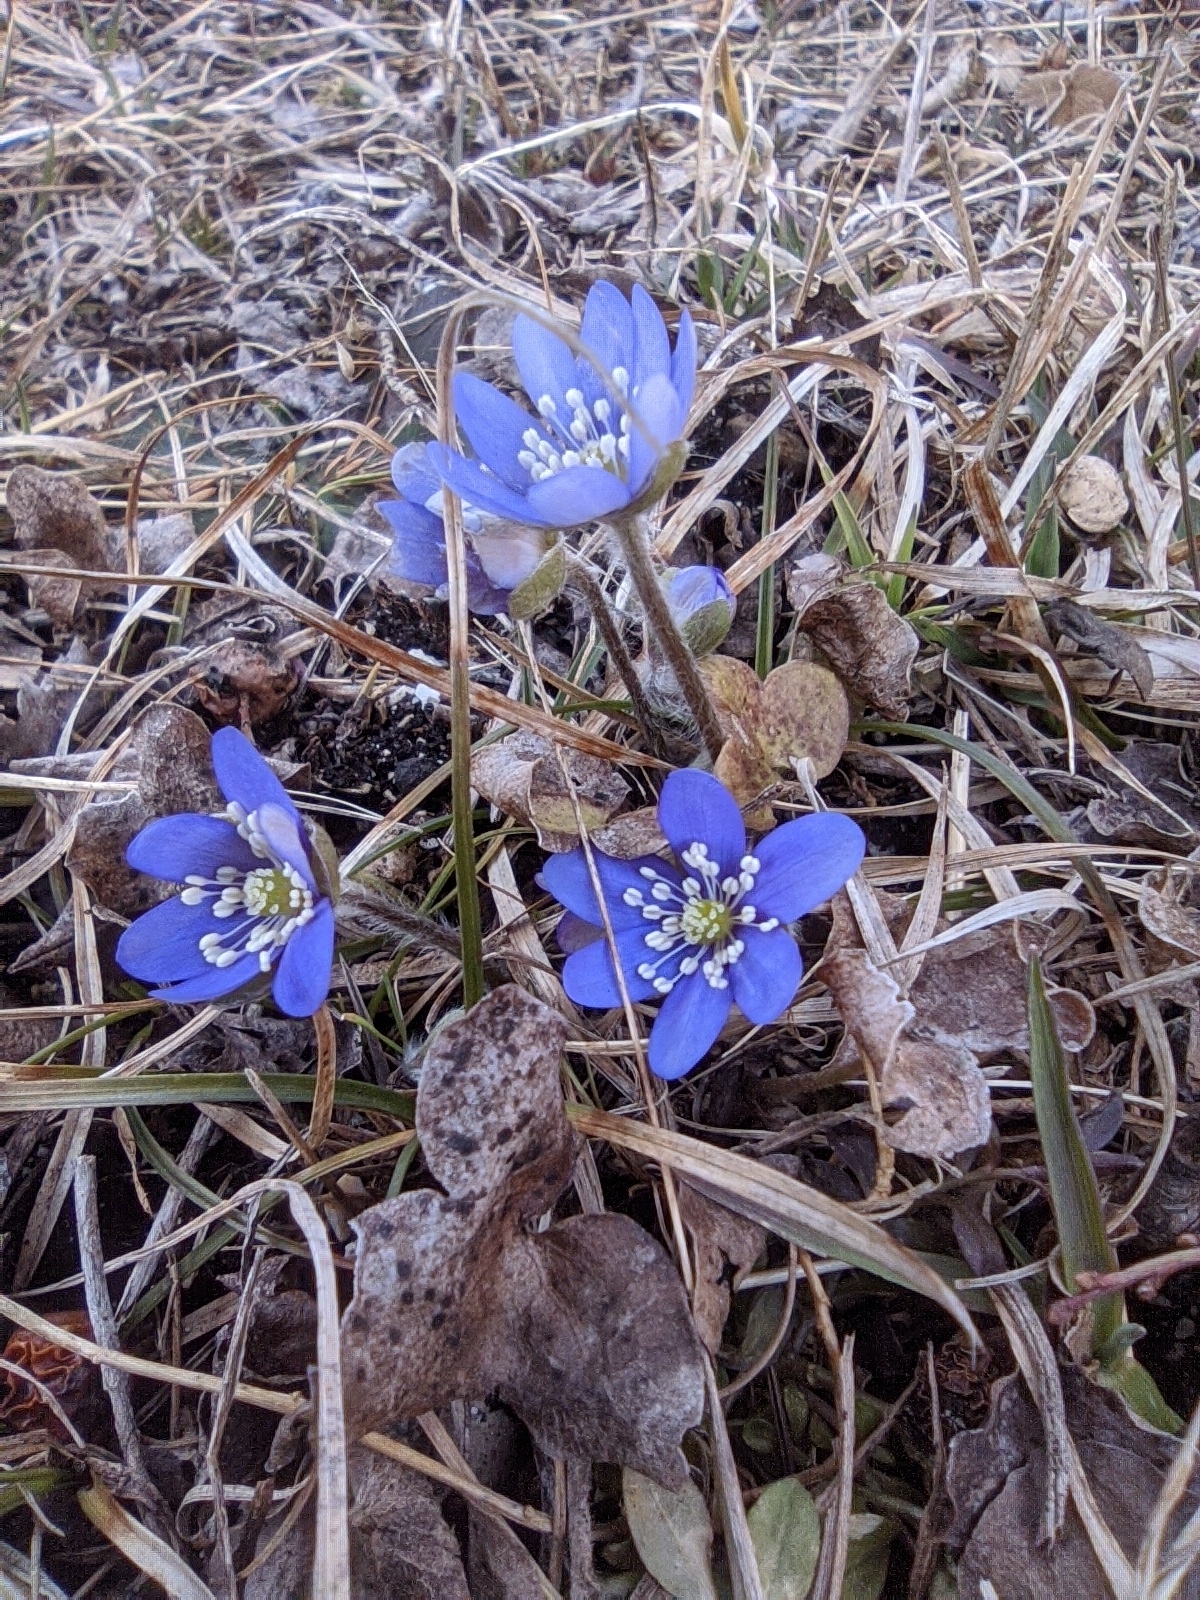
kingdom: Plantae
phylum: Tracheophyta
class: Magnoliopsida
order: Ranunculales
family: Ranunculaceae
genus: Hepatica
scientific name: Hepatica nobilis
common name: Liverleaf
